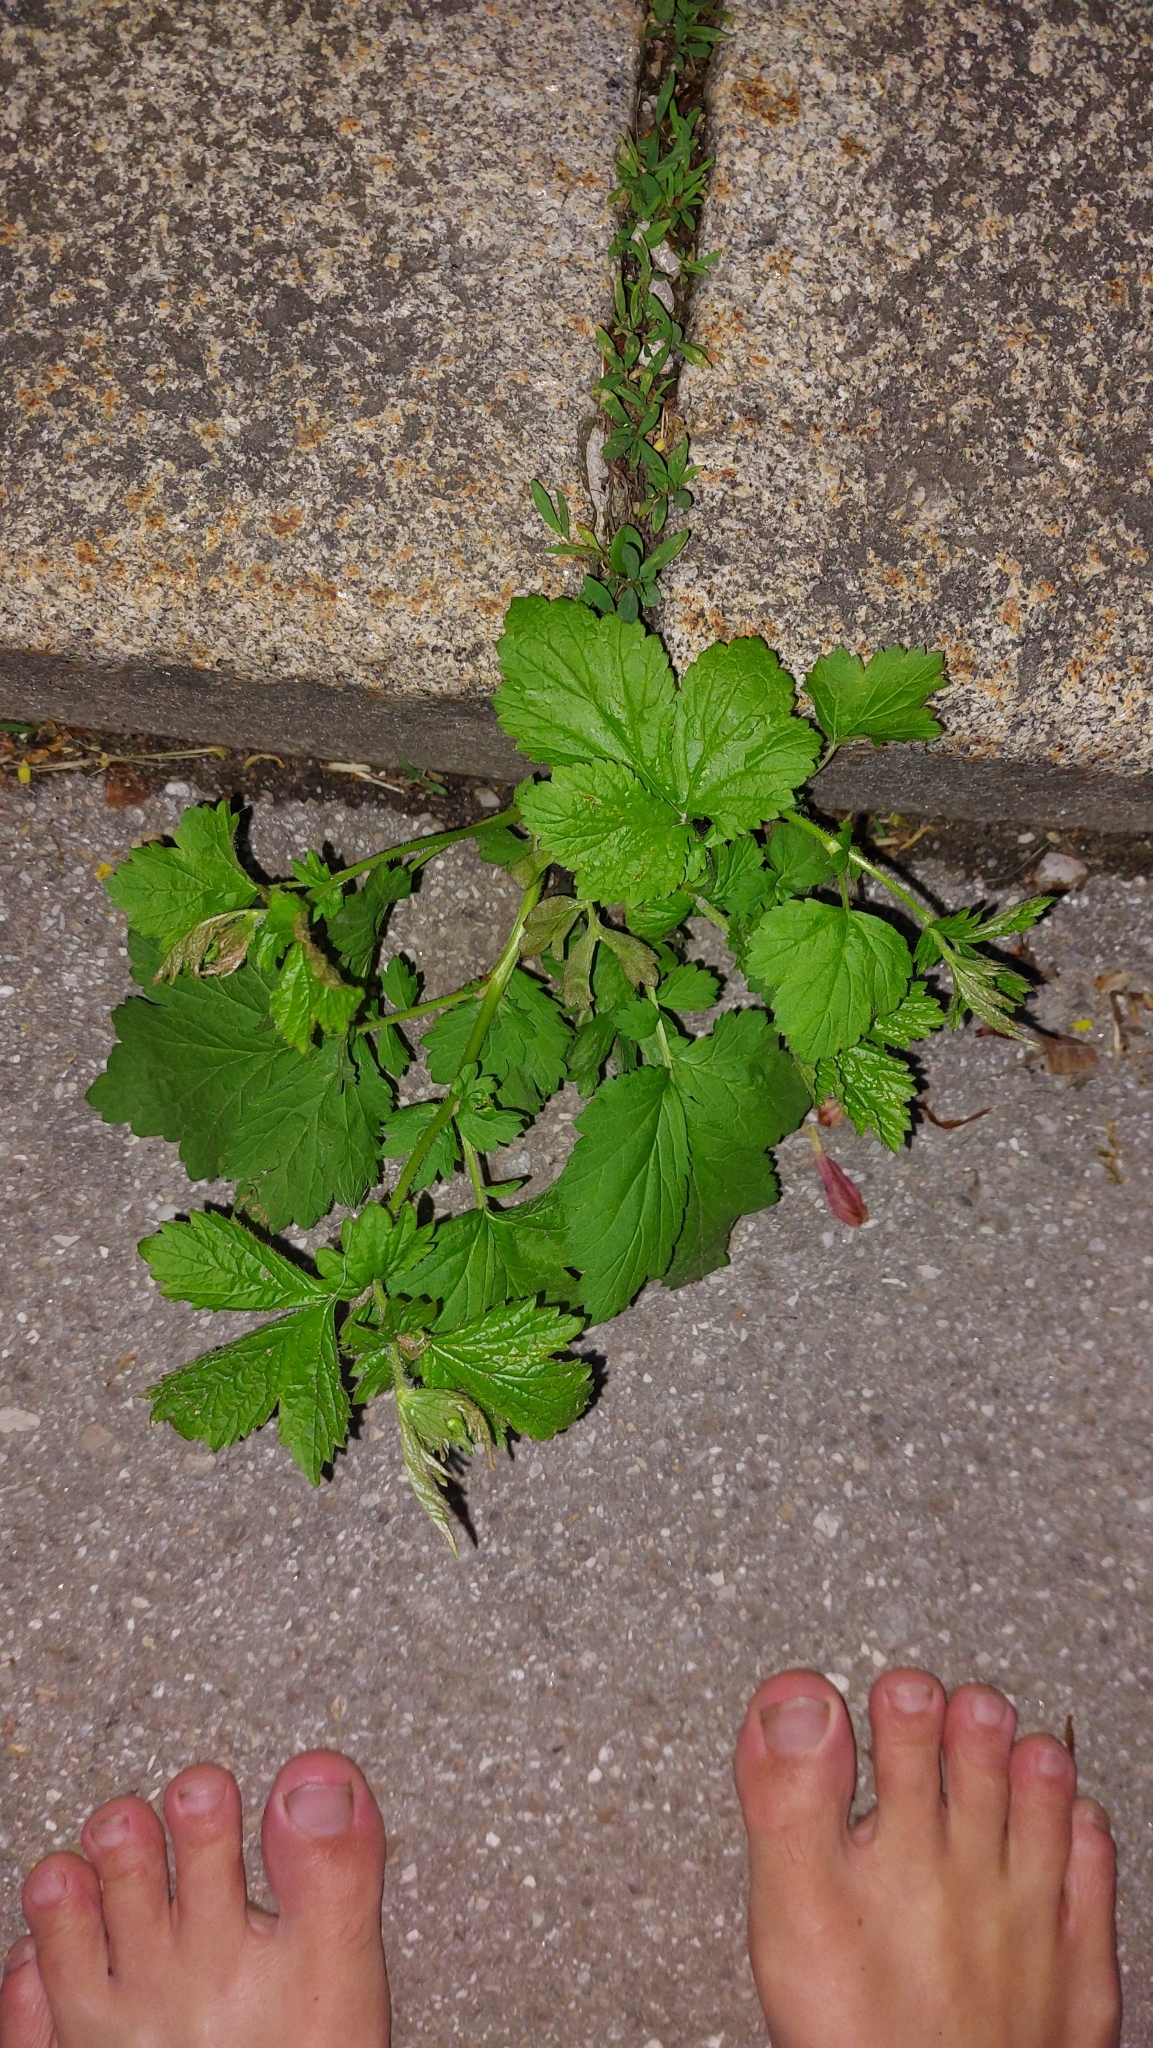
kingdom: Plantae
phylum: Tracheophyta
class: Magnoliopsida
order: Rosales
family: Rosaceae
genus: Geum
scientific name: Geum urbanum
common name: Wood avens
